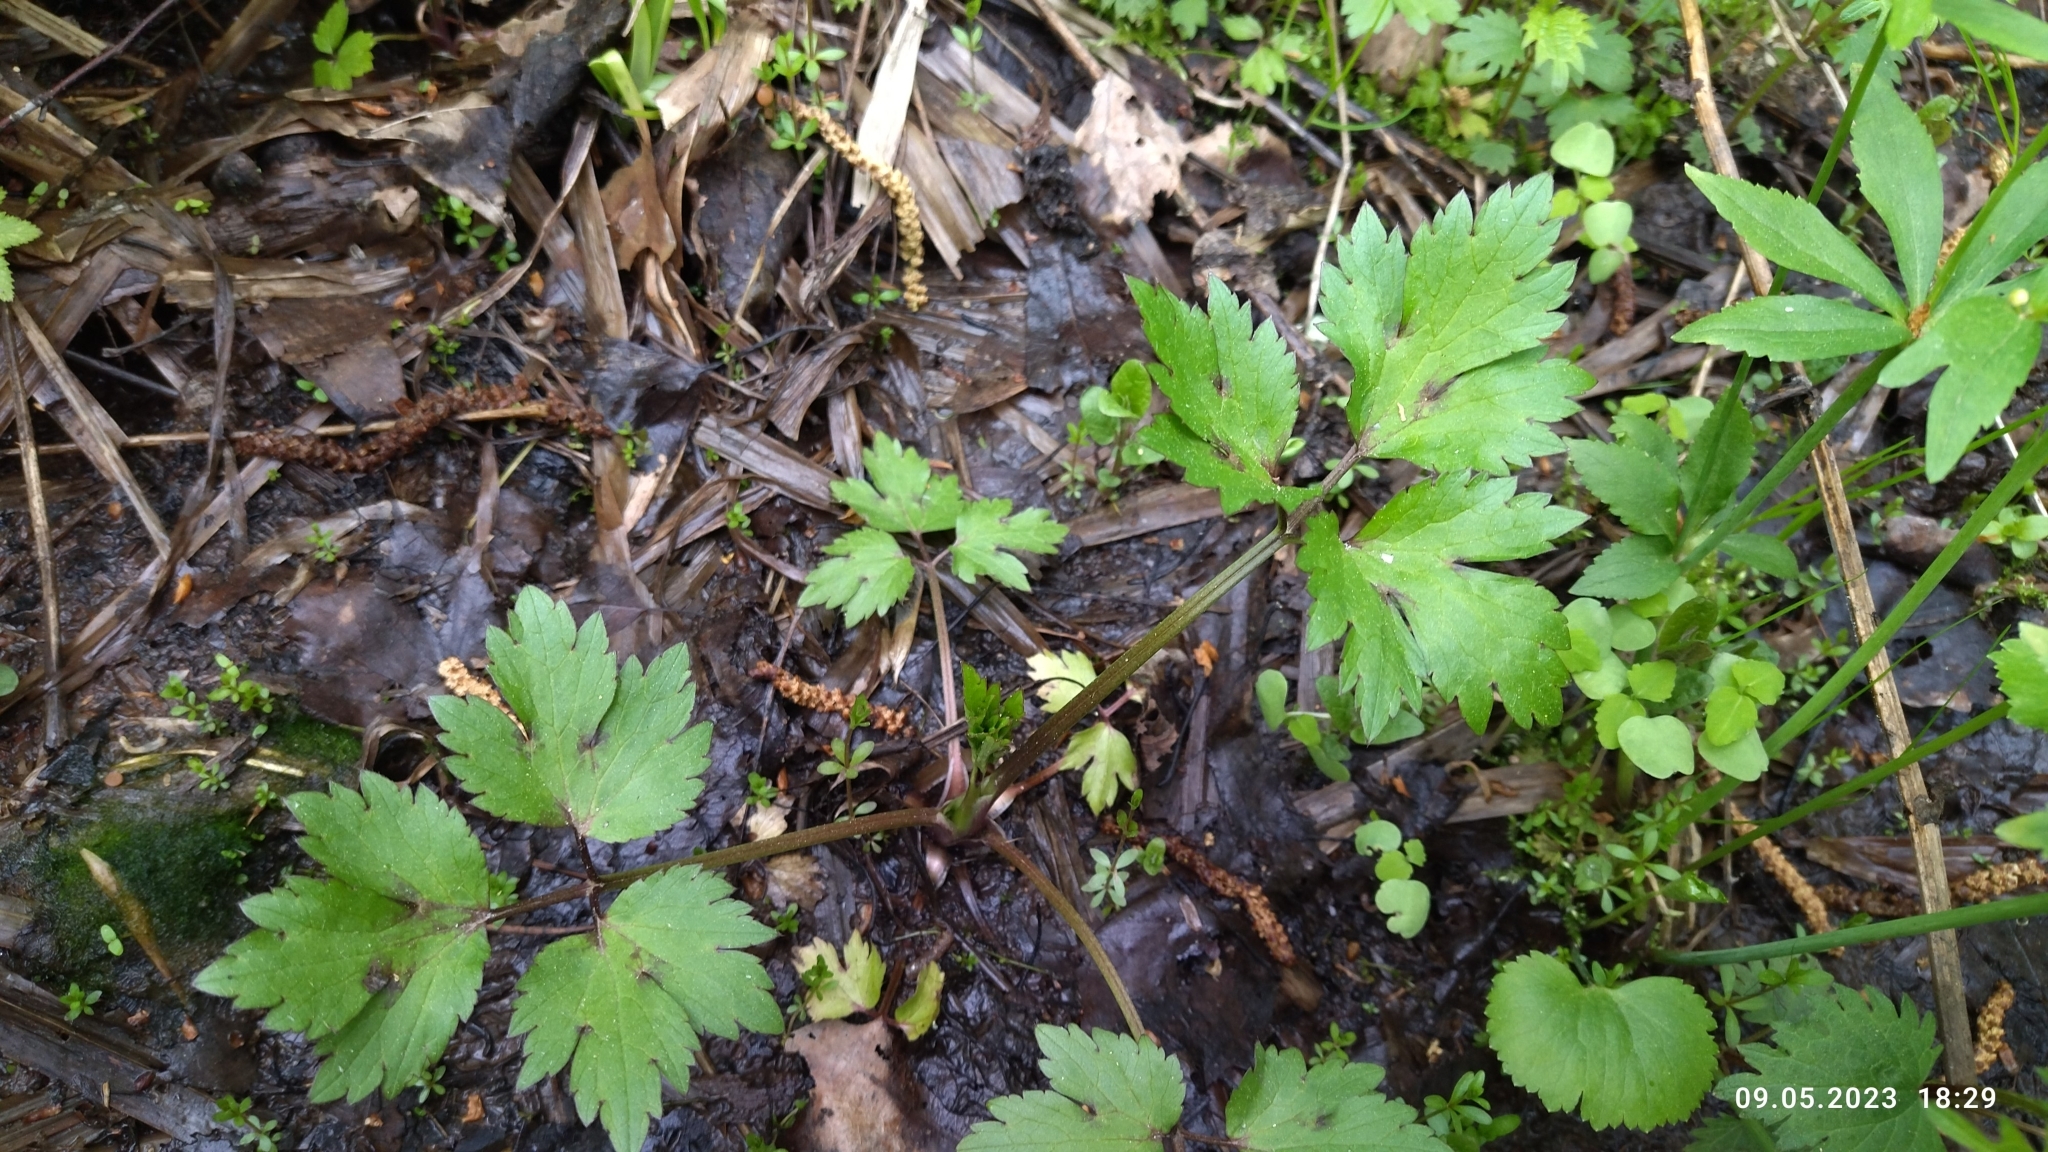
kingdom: Plantae
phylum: Tracheophyta
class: Magnoliopsida
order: Ranunculales
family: Ranunculaceae
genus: Ranunculus
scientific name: Ranunculus repens
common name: Creeping buttercup
